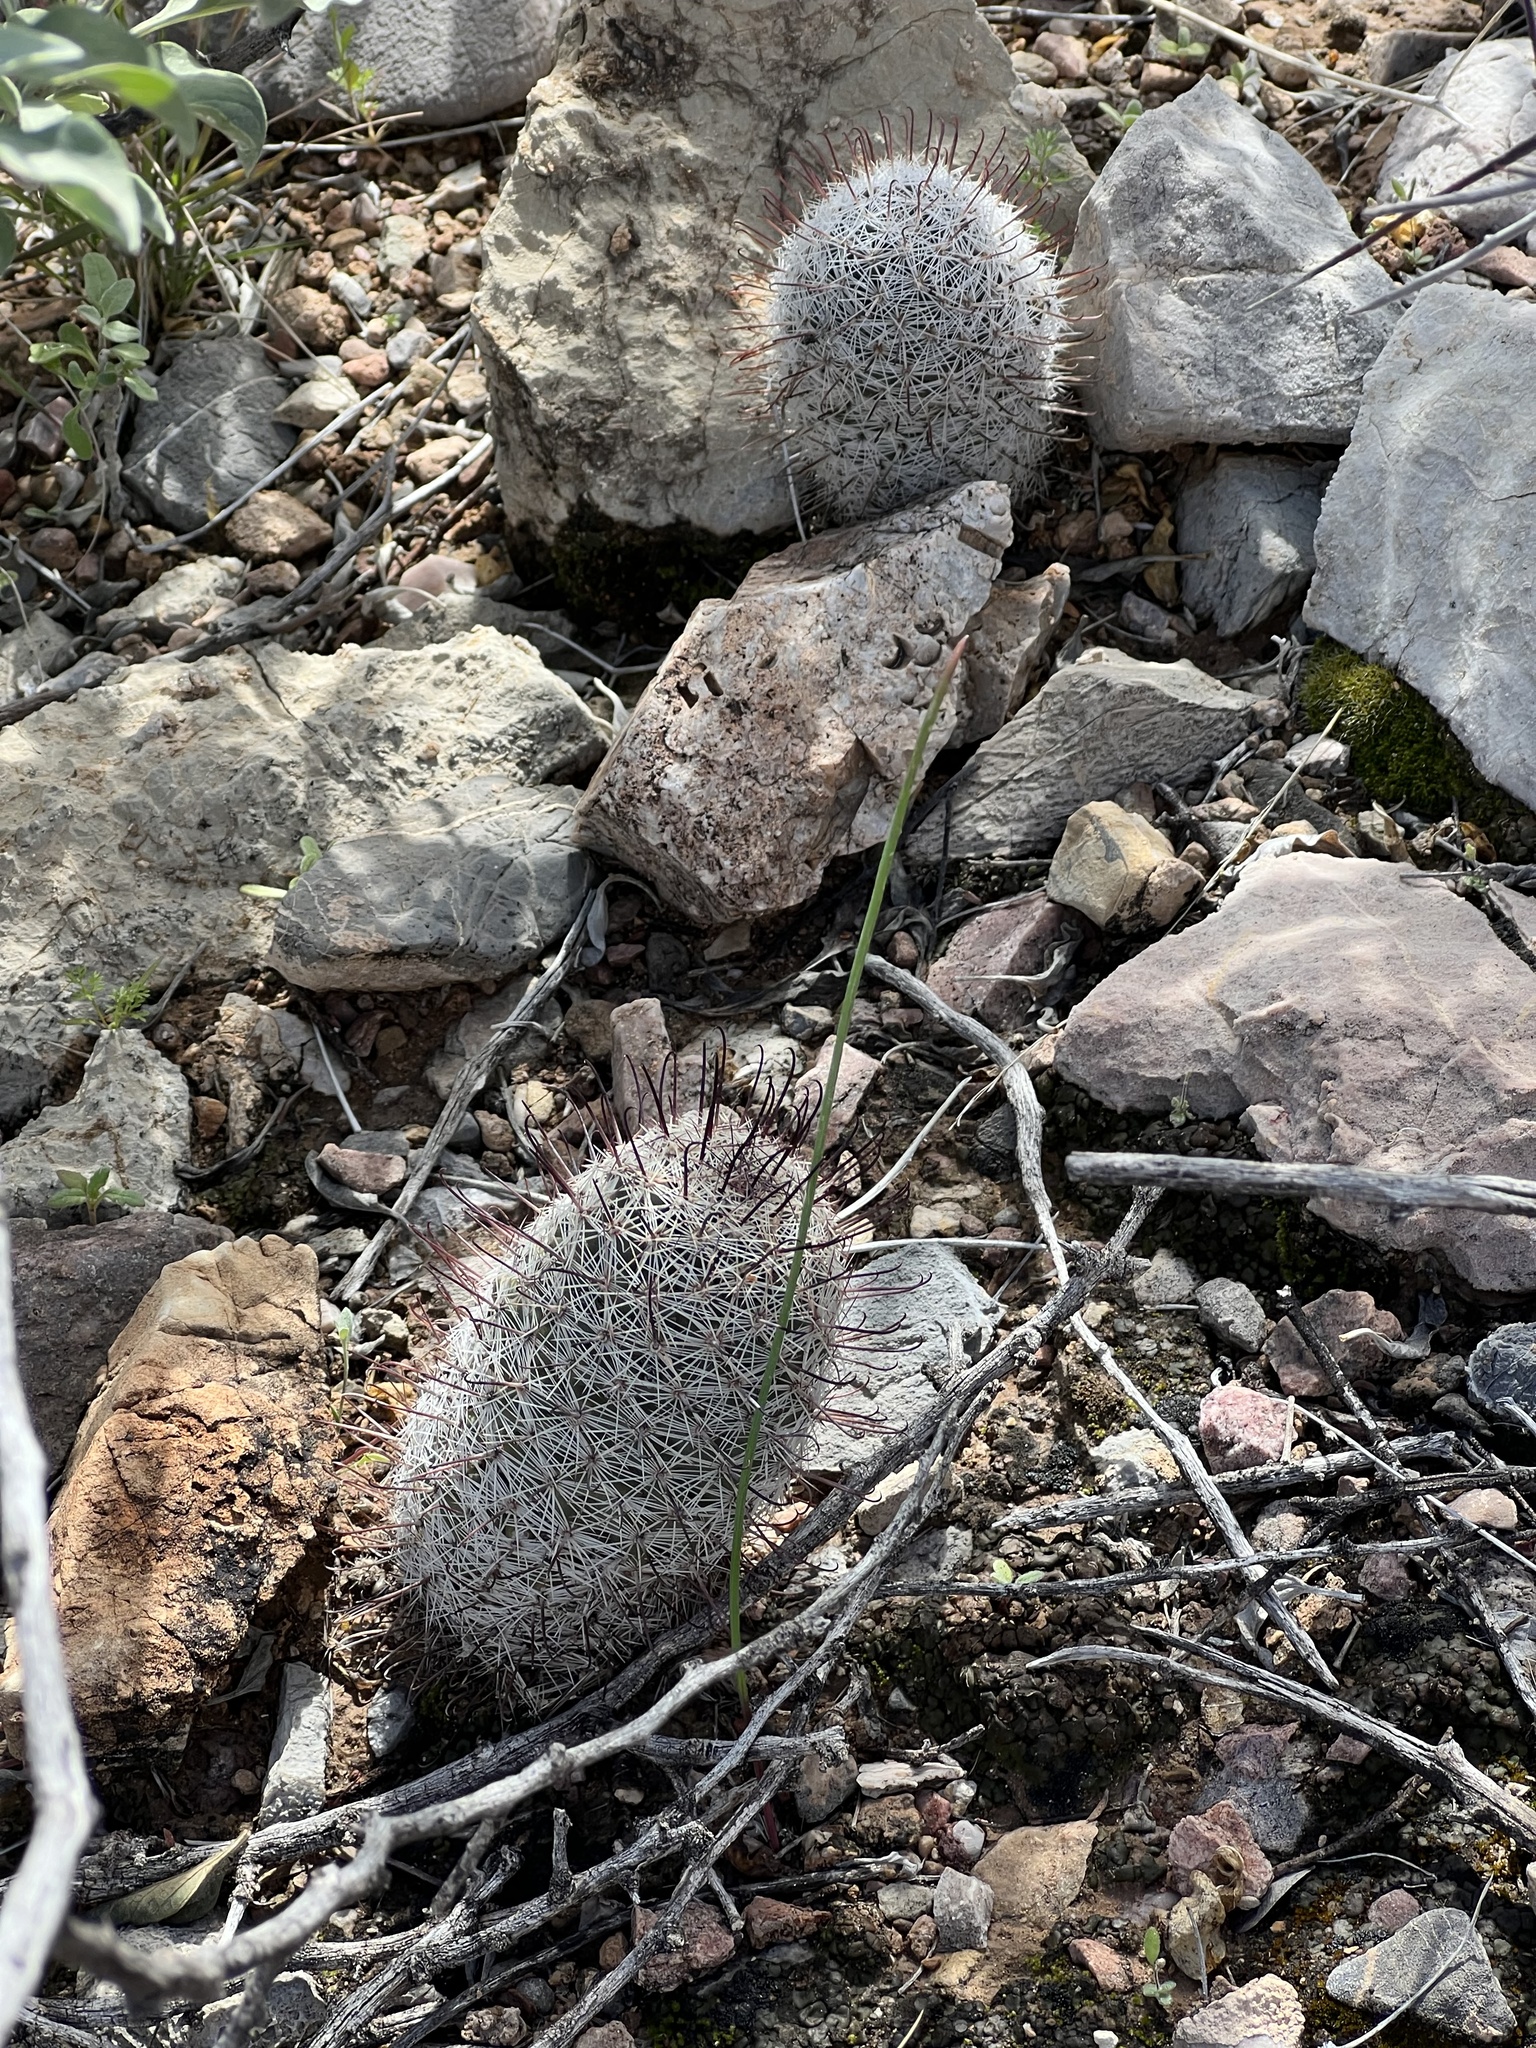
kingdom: Plantae
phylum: Tracheophyta
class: Magnoliopsida
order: Caryophyllales
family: Cactaceae
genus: Cochemiea
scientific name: Cochemiea grahamii
